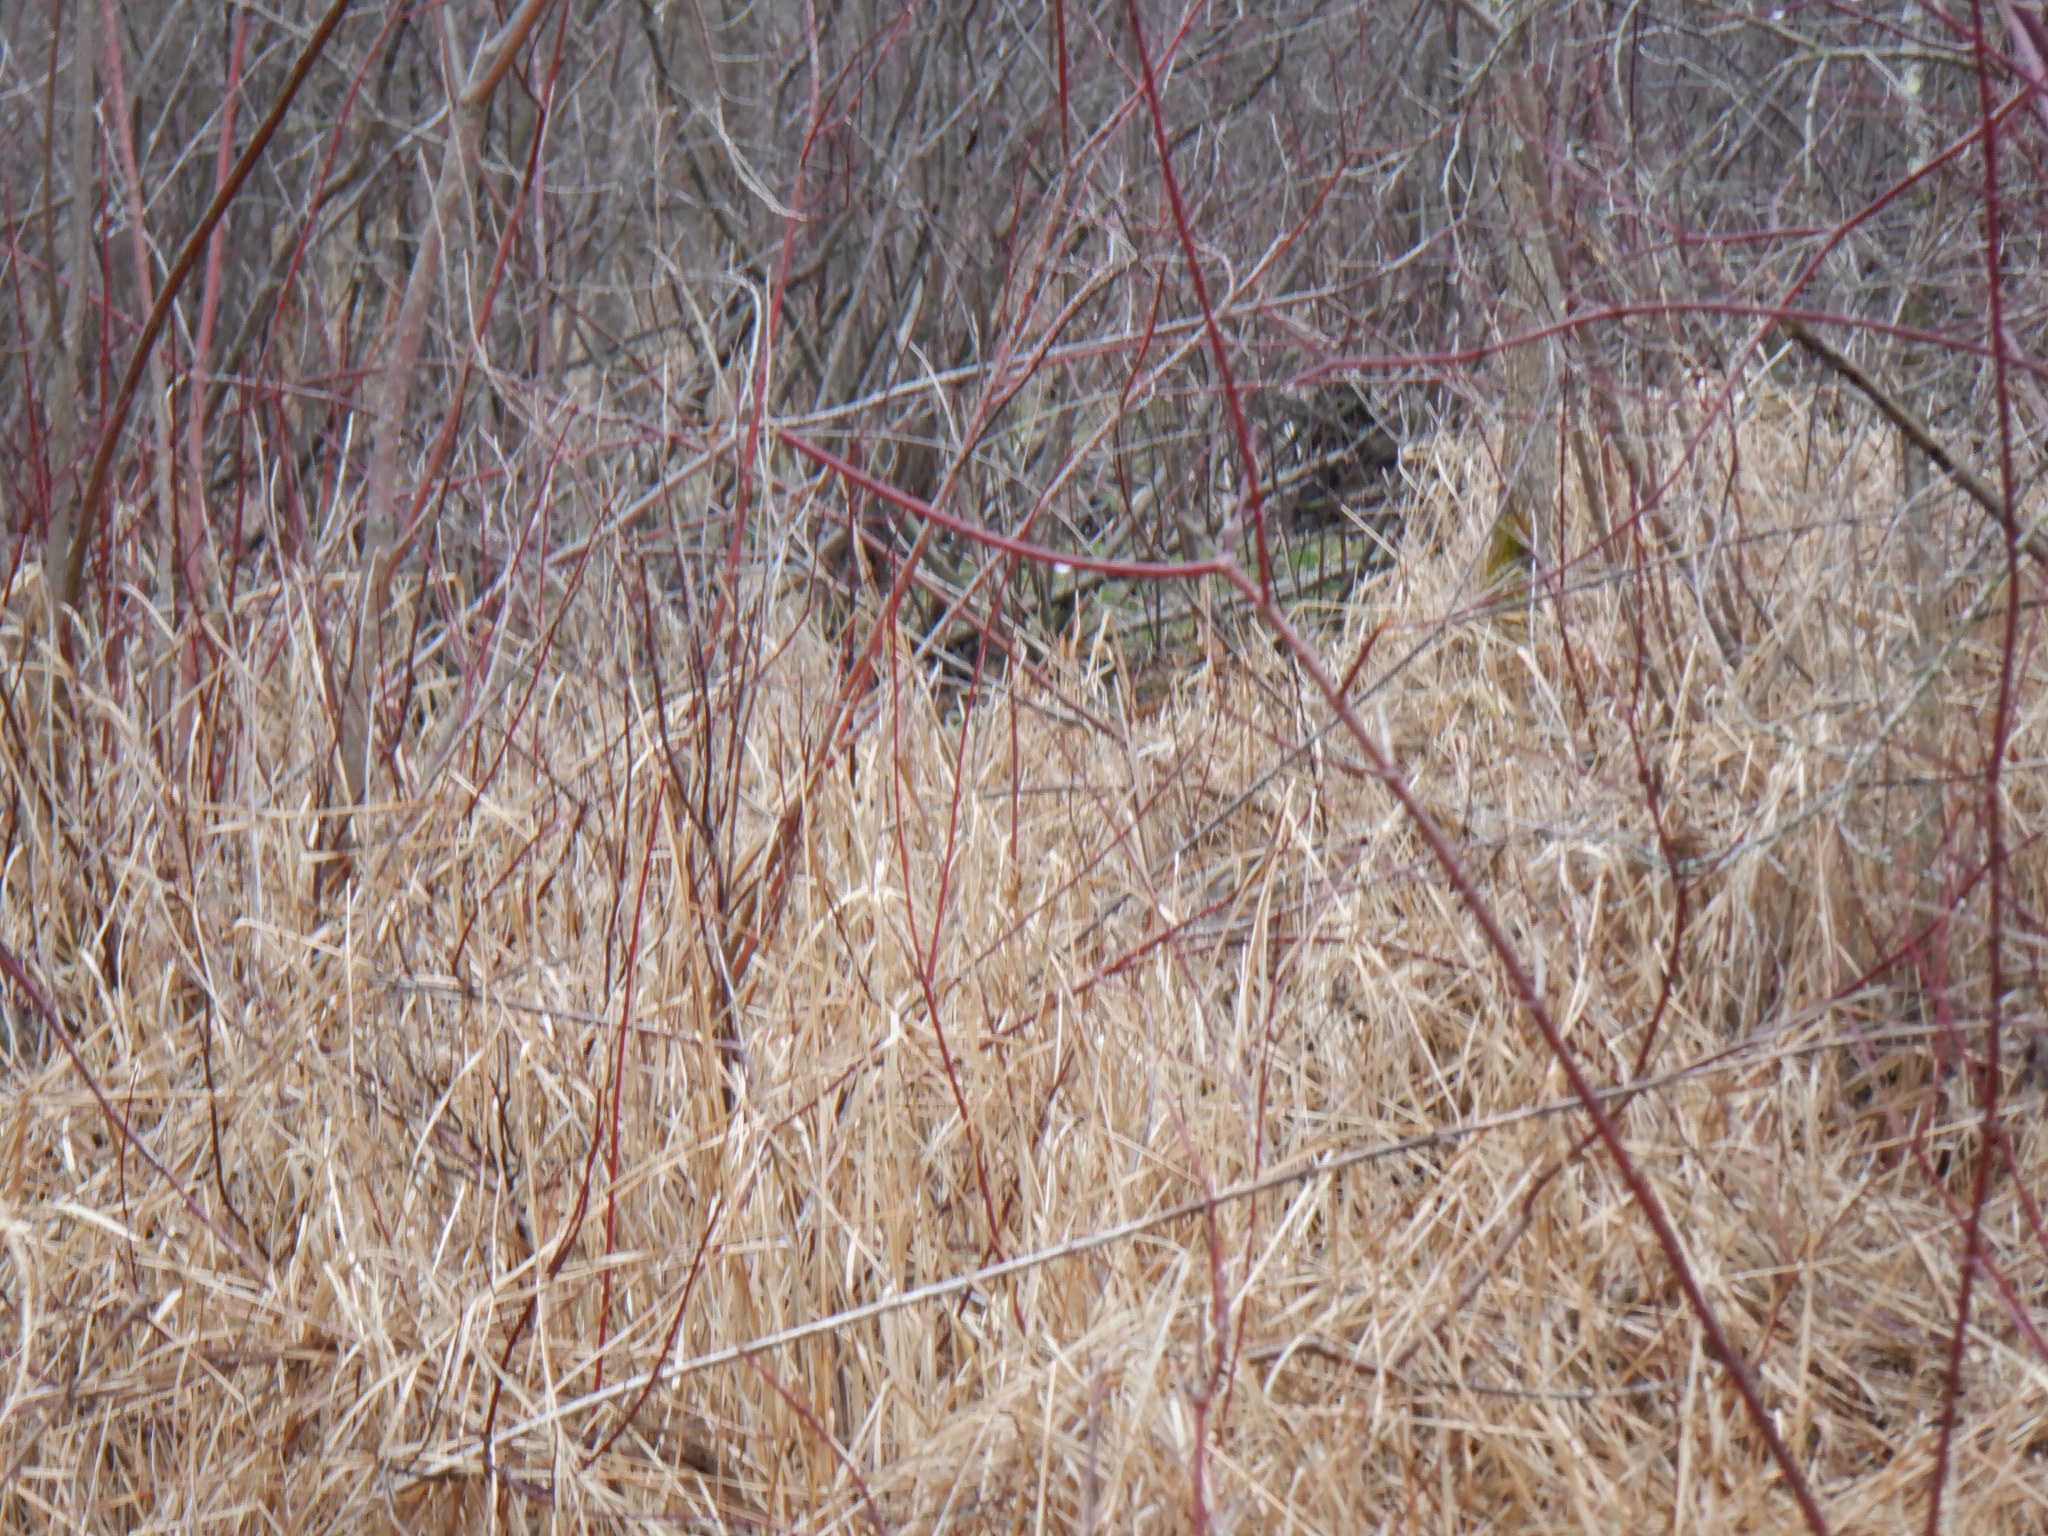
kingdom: Plantae
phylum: Tracheophyta
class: Magnoliopsida
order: Cornales
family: Cornaceae
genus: Cornus
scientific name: Cornus sericea
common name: Red-osier dogwood
